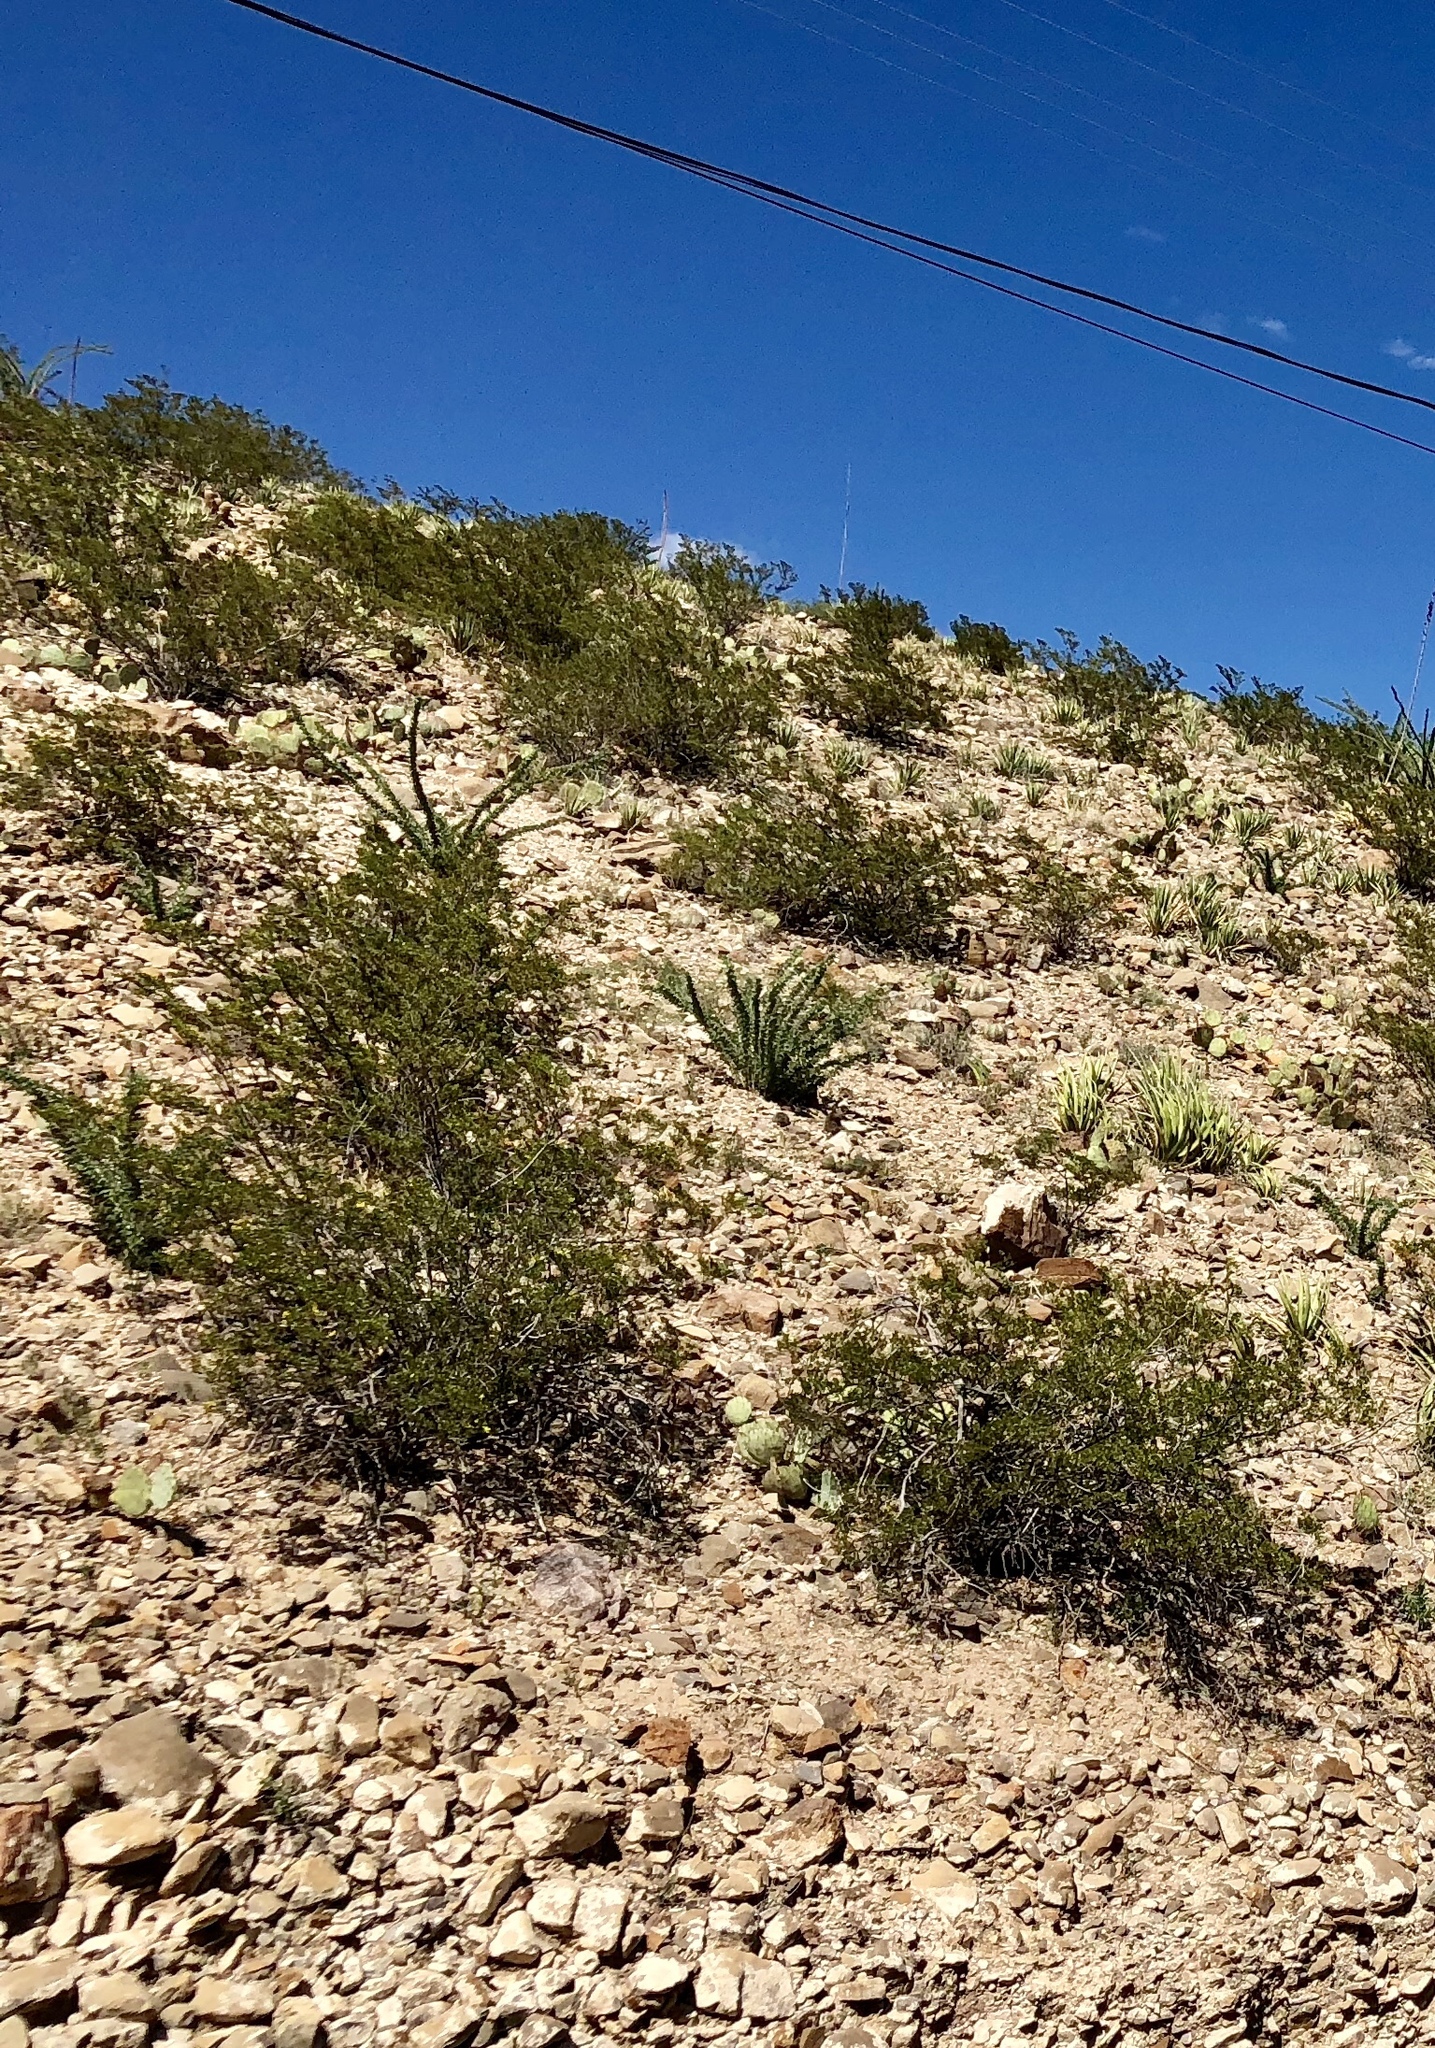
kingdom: Plantae
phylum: Tracheophyta
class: Magnoliopsida
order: Zygophyllales
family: Zygophyllaceae
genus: Larrea
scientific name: Larrea tridentata
